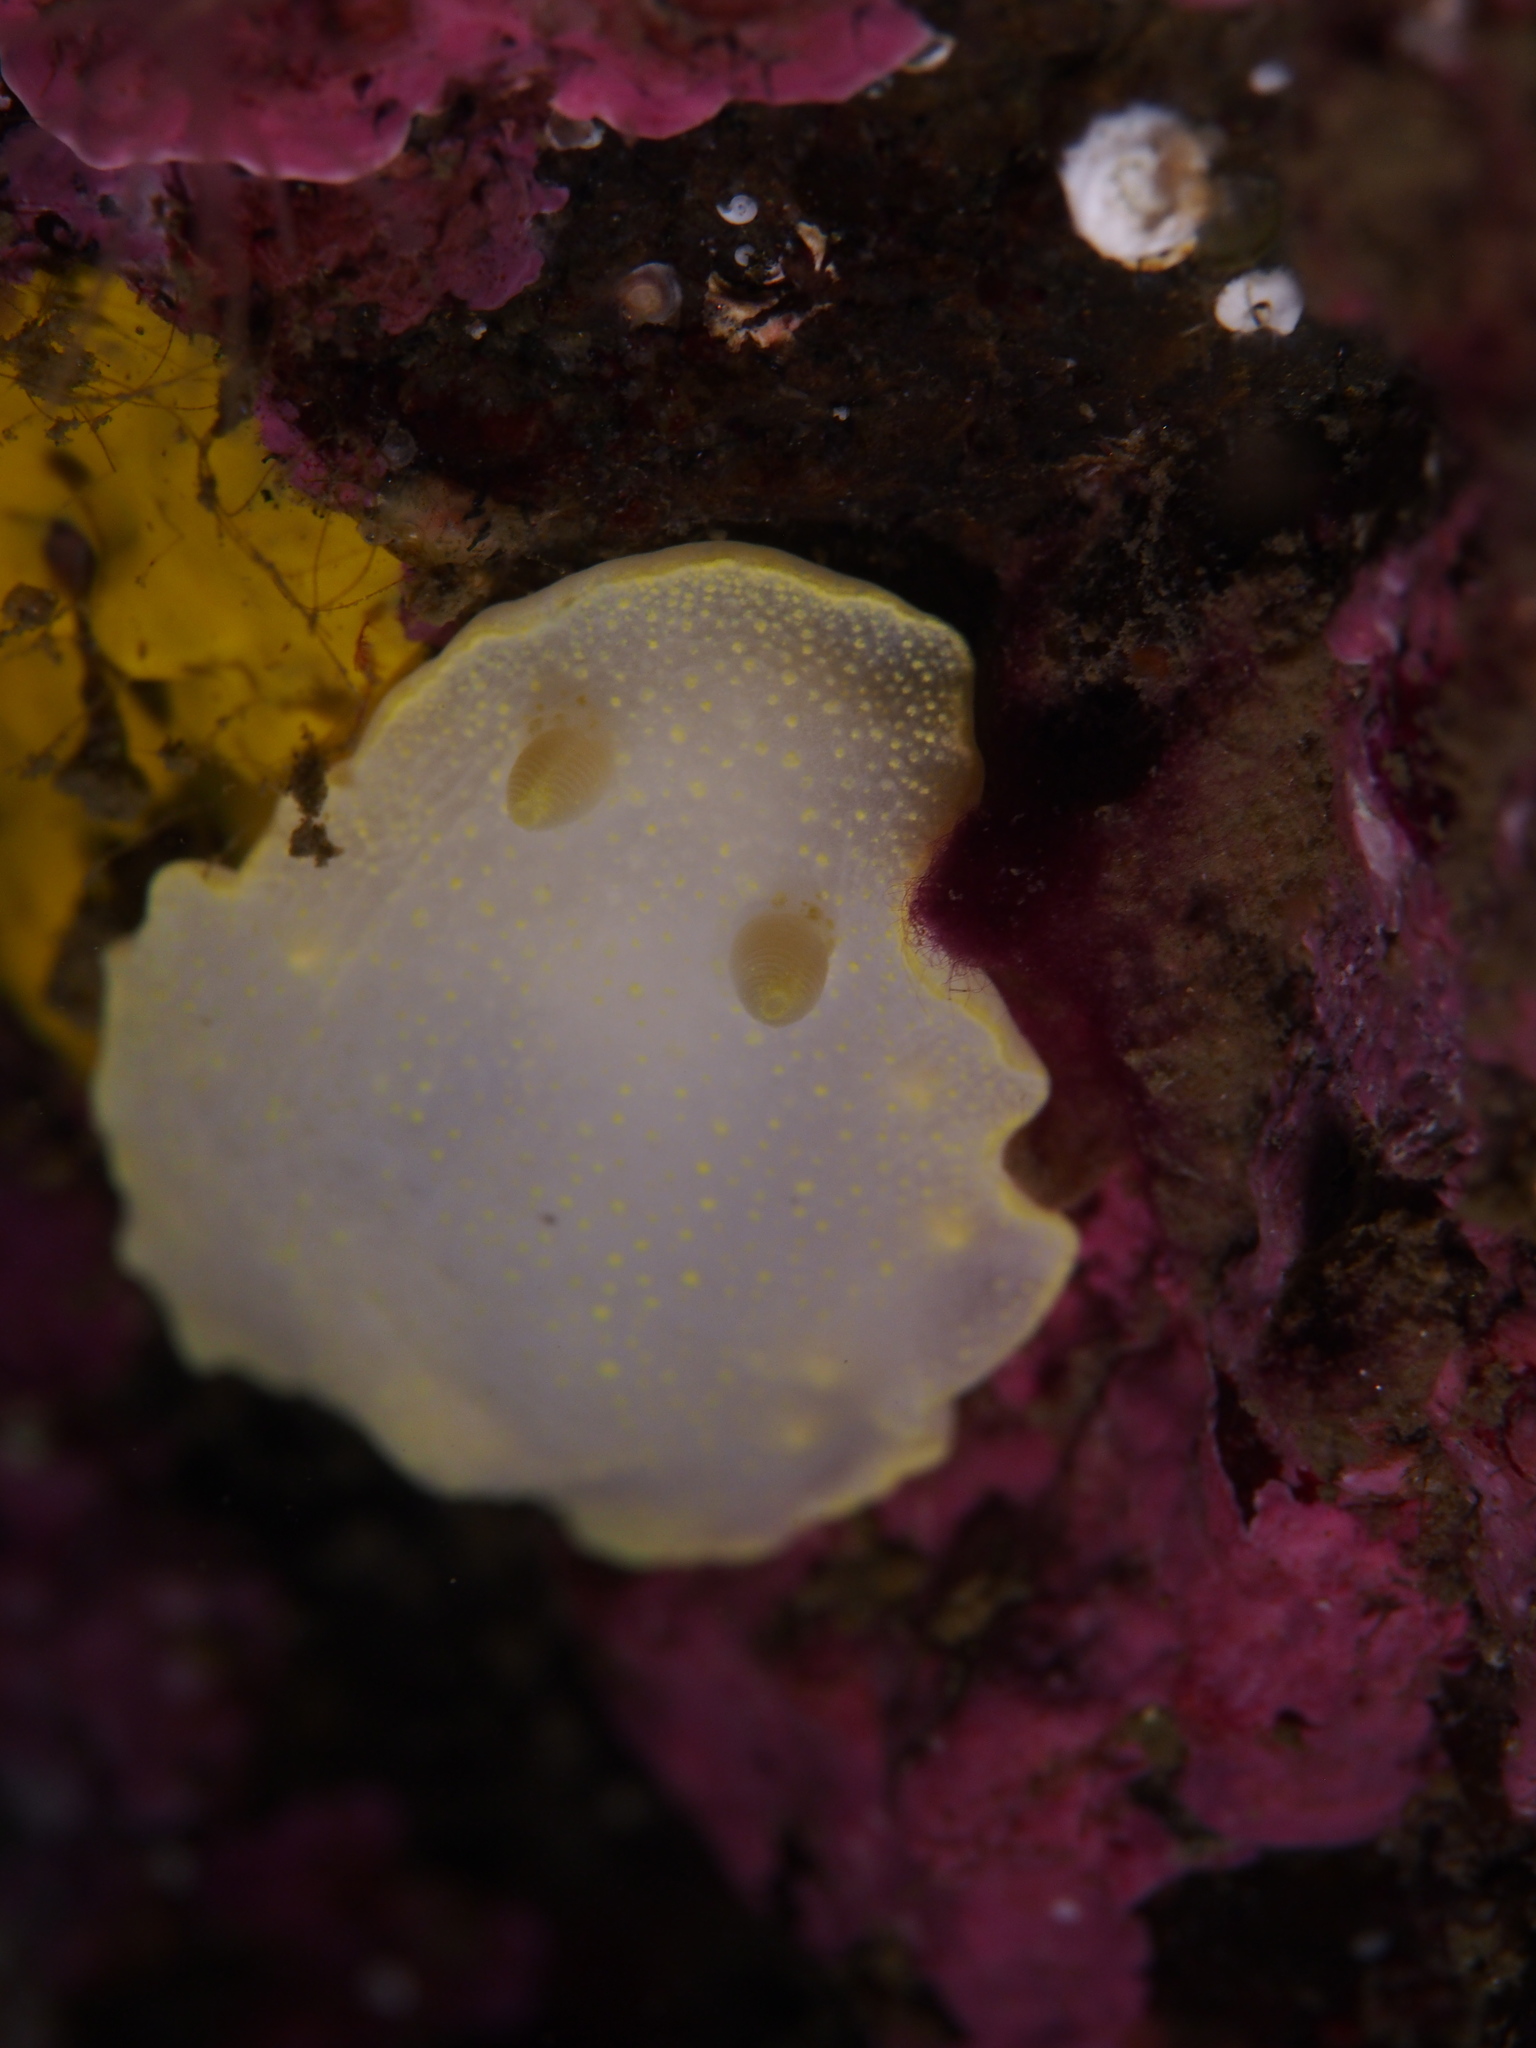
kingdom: Animalia
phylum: Mollusca
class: Gastropoda
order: Nudibranchia
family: Cadlinidae
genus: Cadlina
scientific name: Cadlina laevis
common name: White atlantic cadlina
